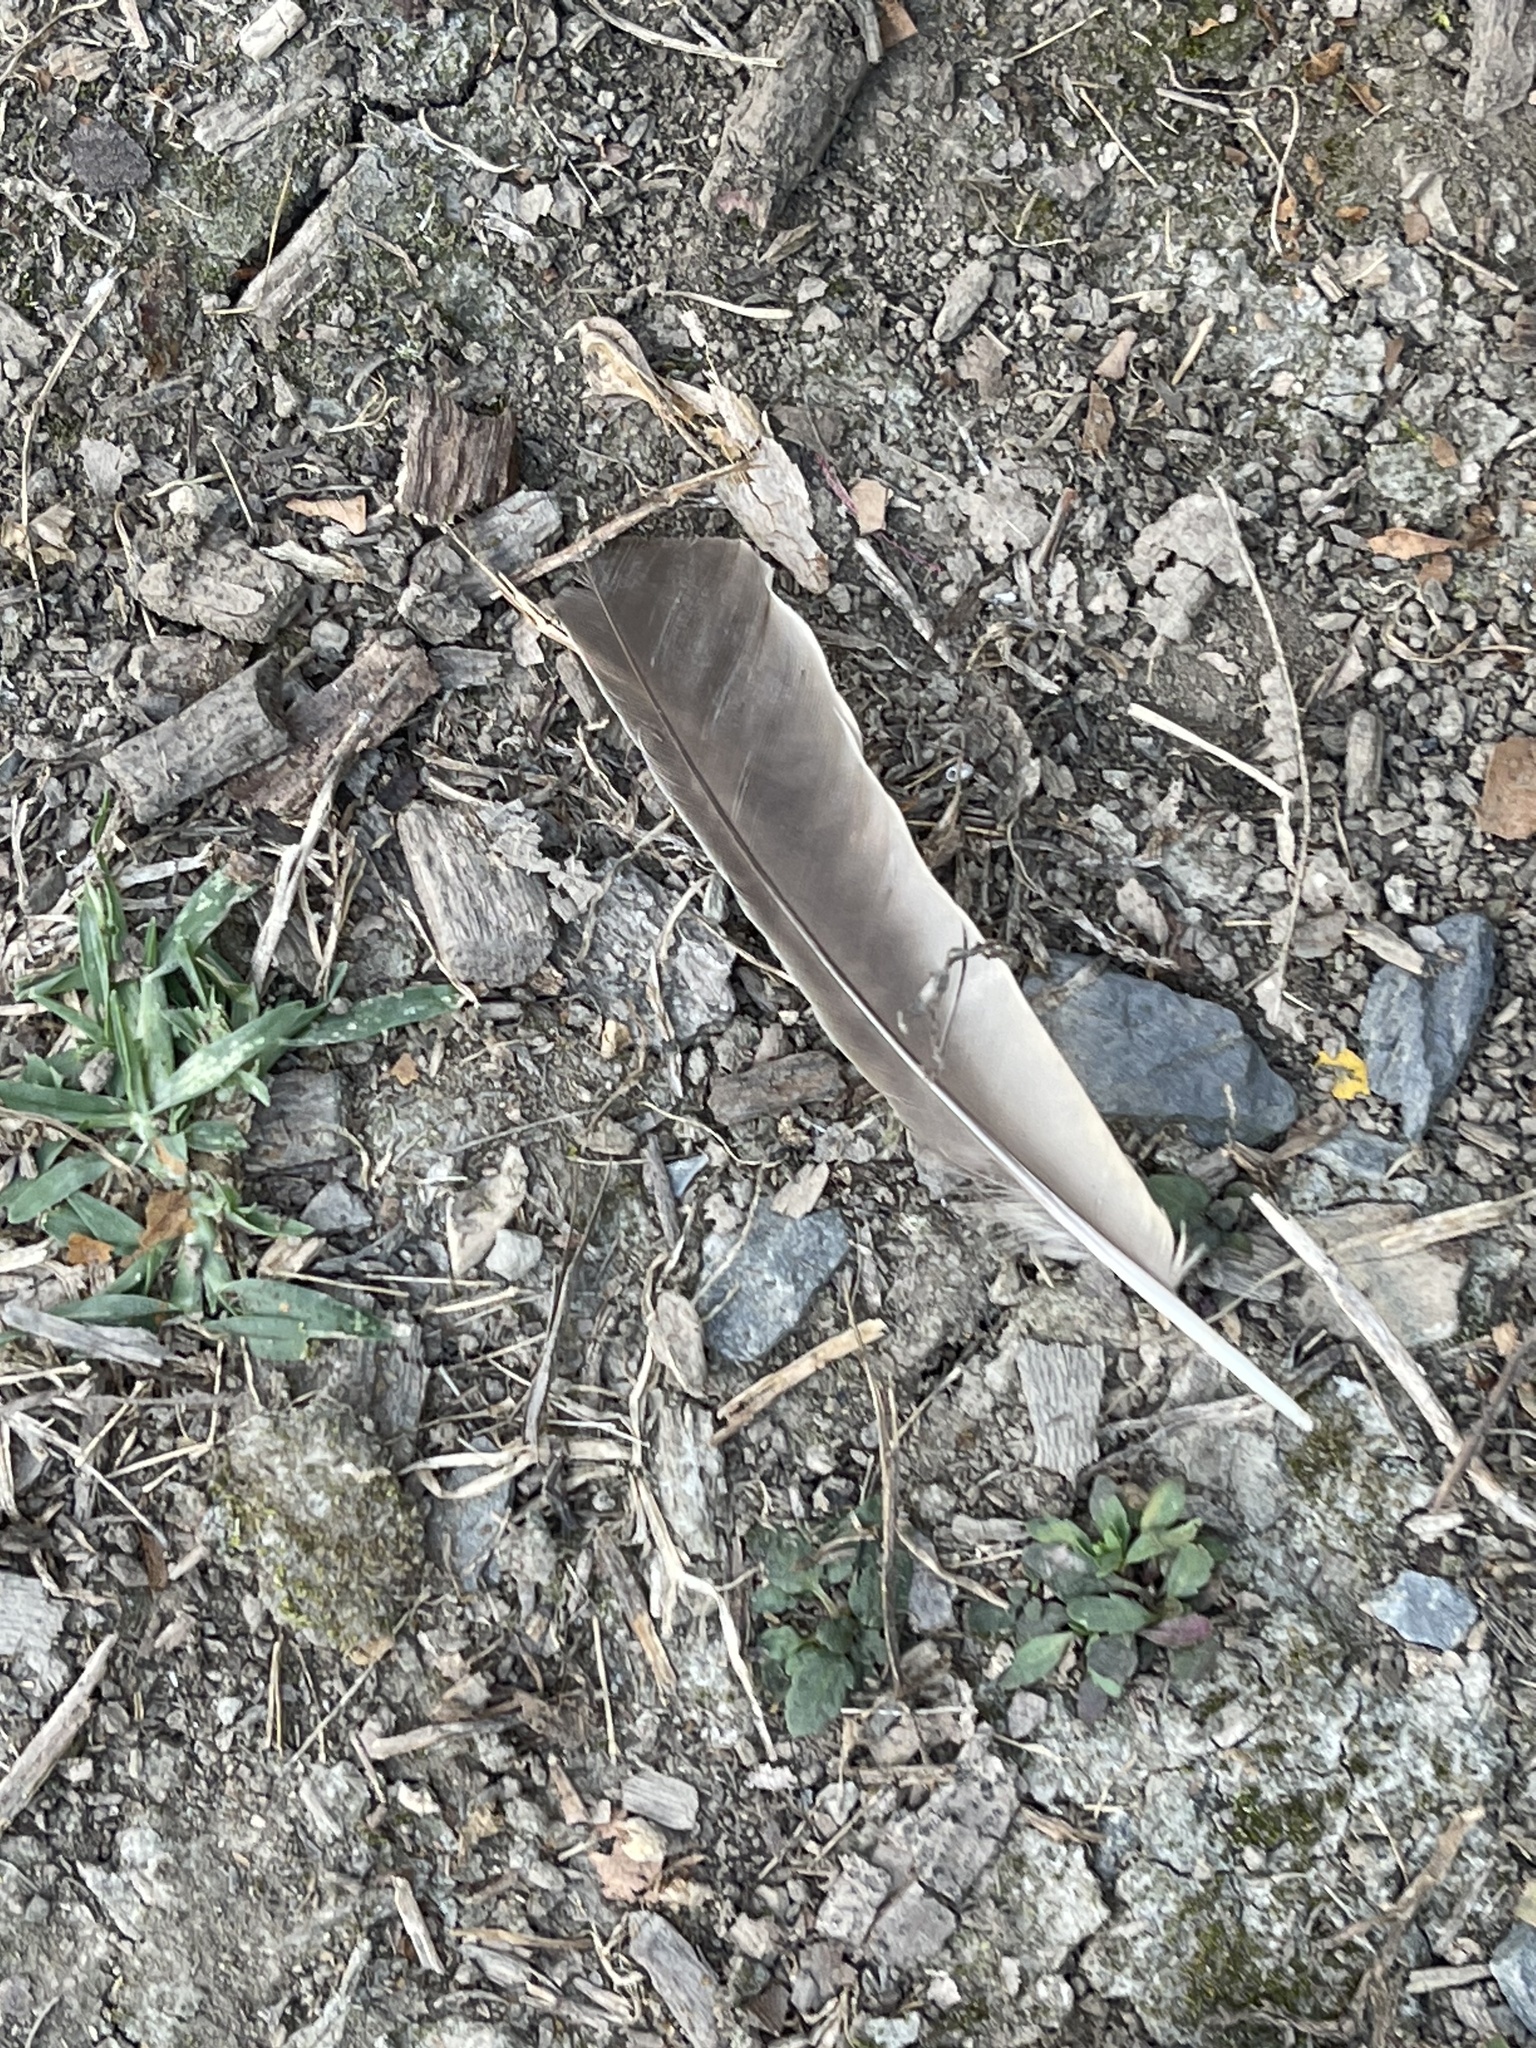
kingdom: Animalia
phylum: Chordata
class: Aves
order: Passeriformes
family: Turdidae
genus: Turdus
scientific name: Turdus migratorius
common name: American robin
